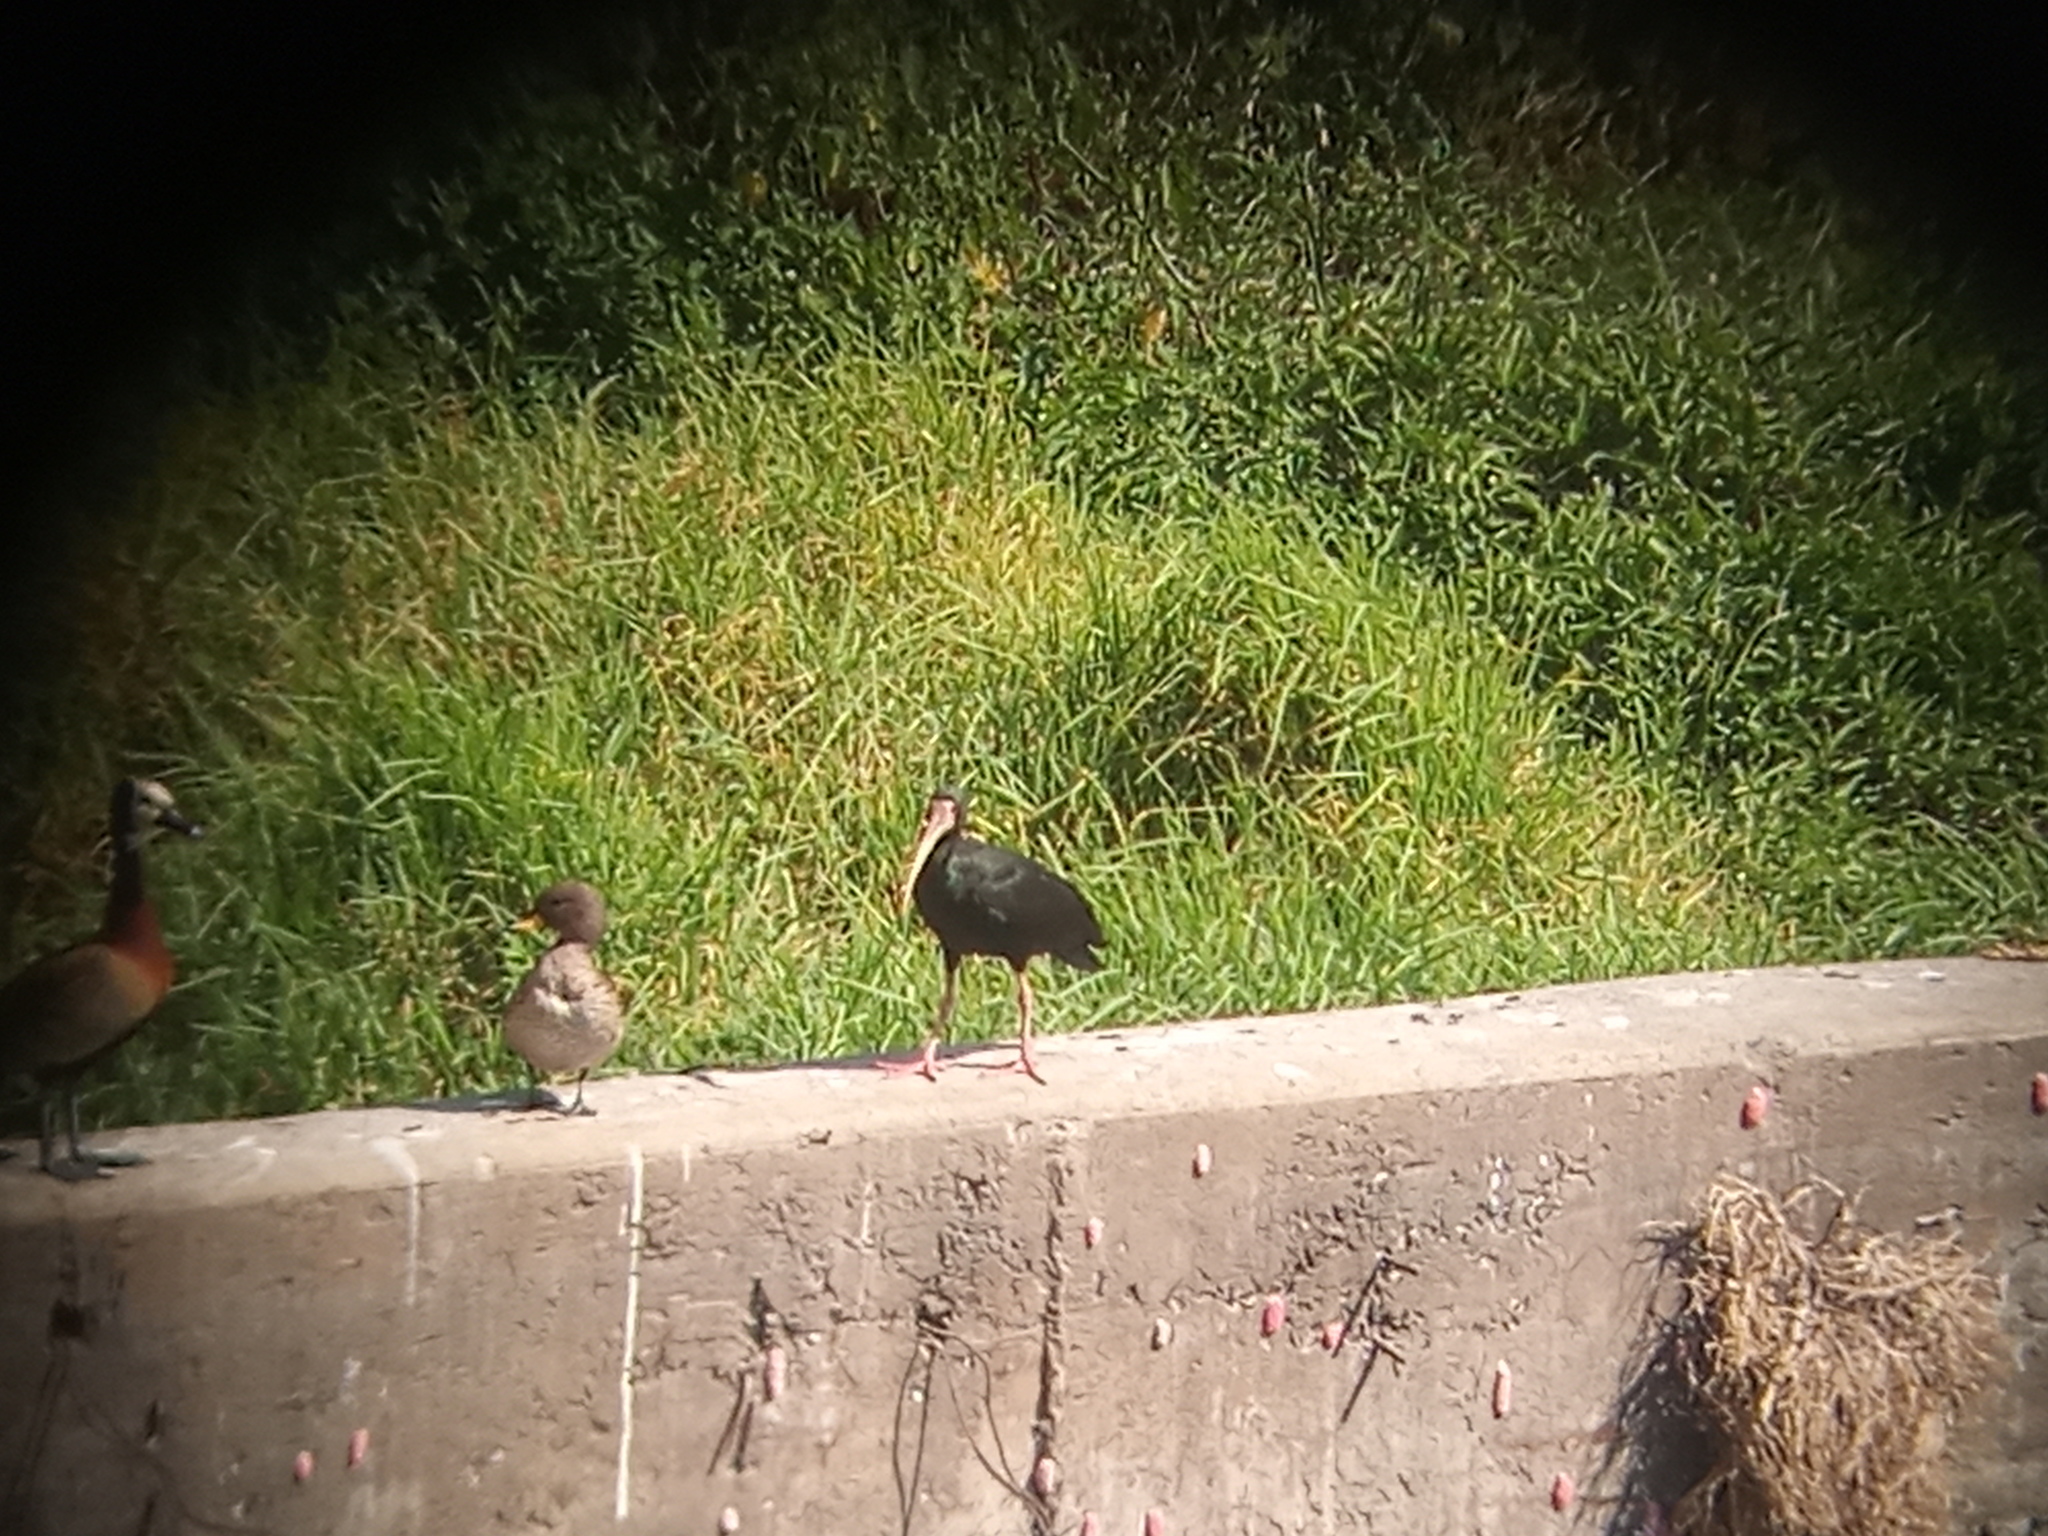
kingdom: Animalia
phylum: Chordata
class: Aves
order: Pelecaniformes
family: Threskiornithidae
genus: Phimosus
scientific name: Phimosus infuscatus
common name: Bare-faced ibis
